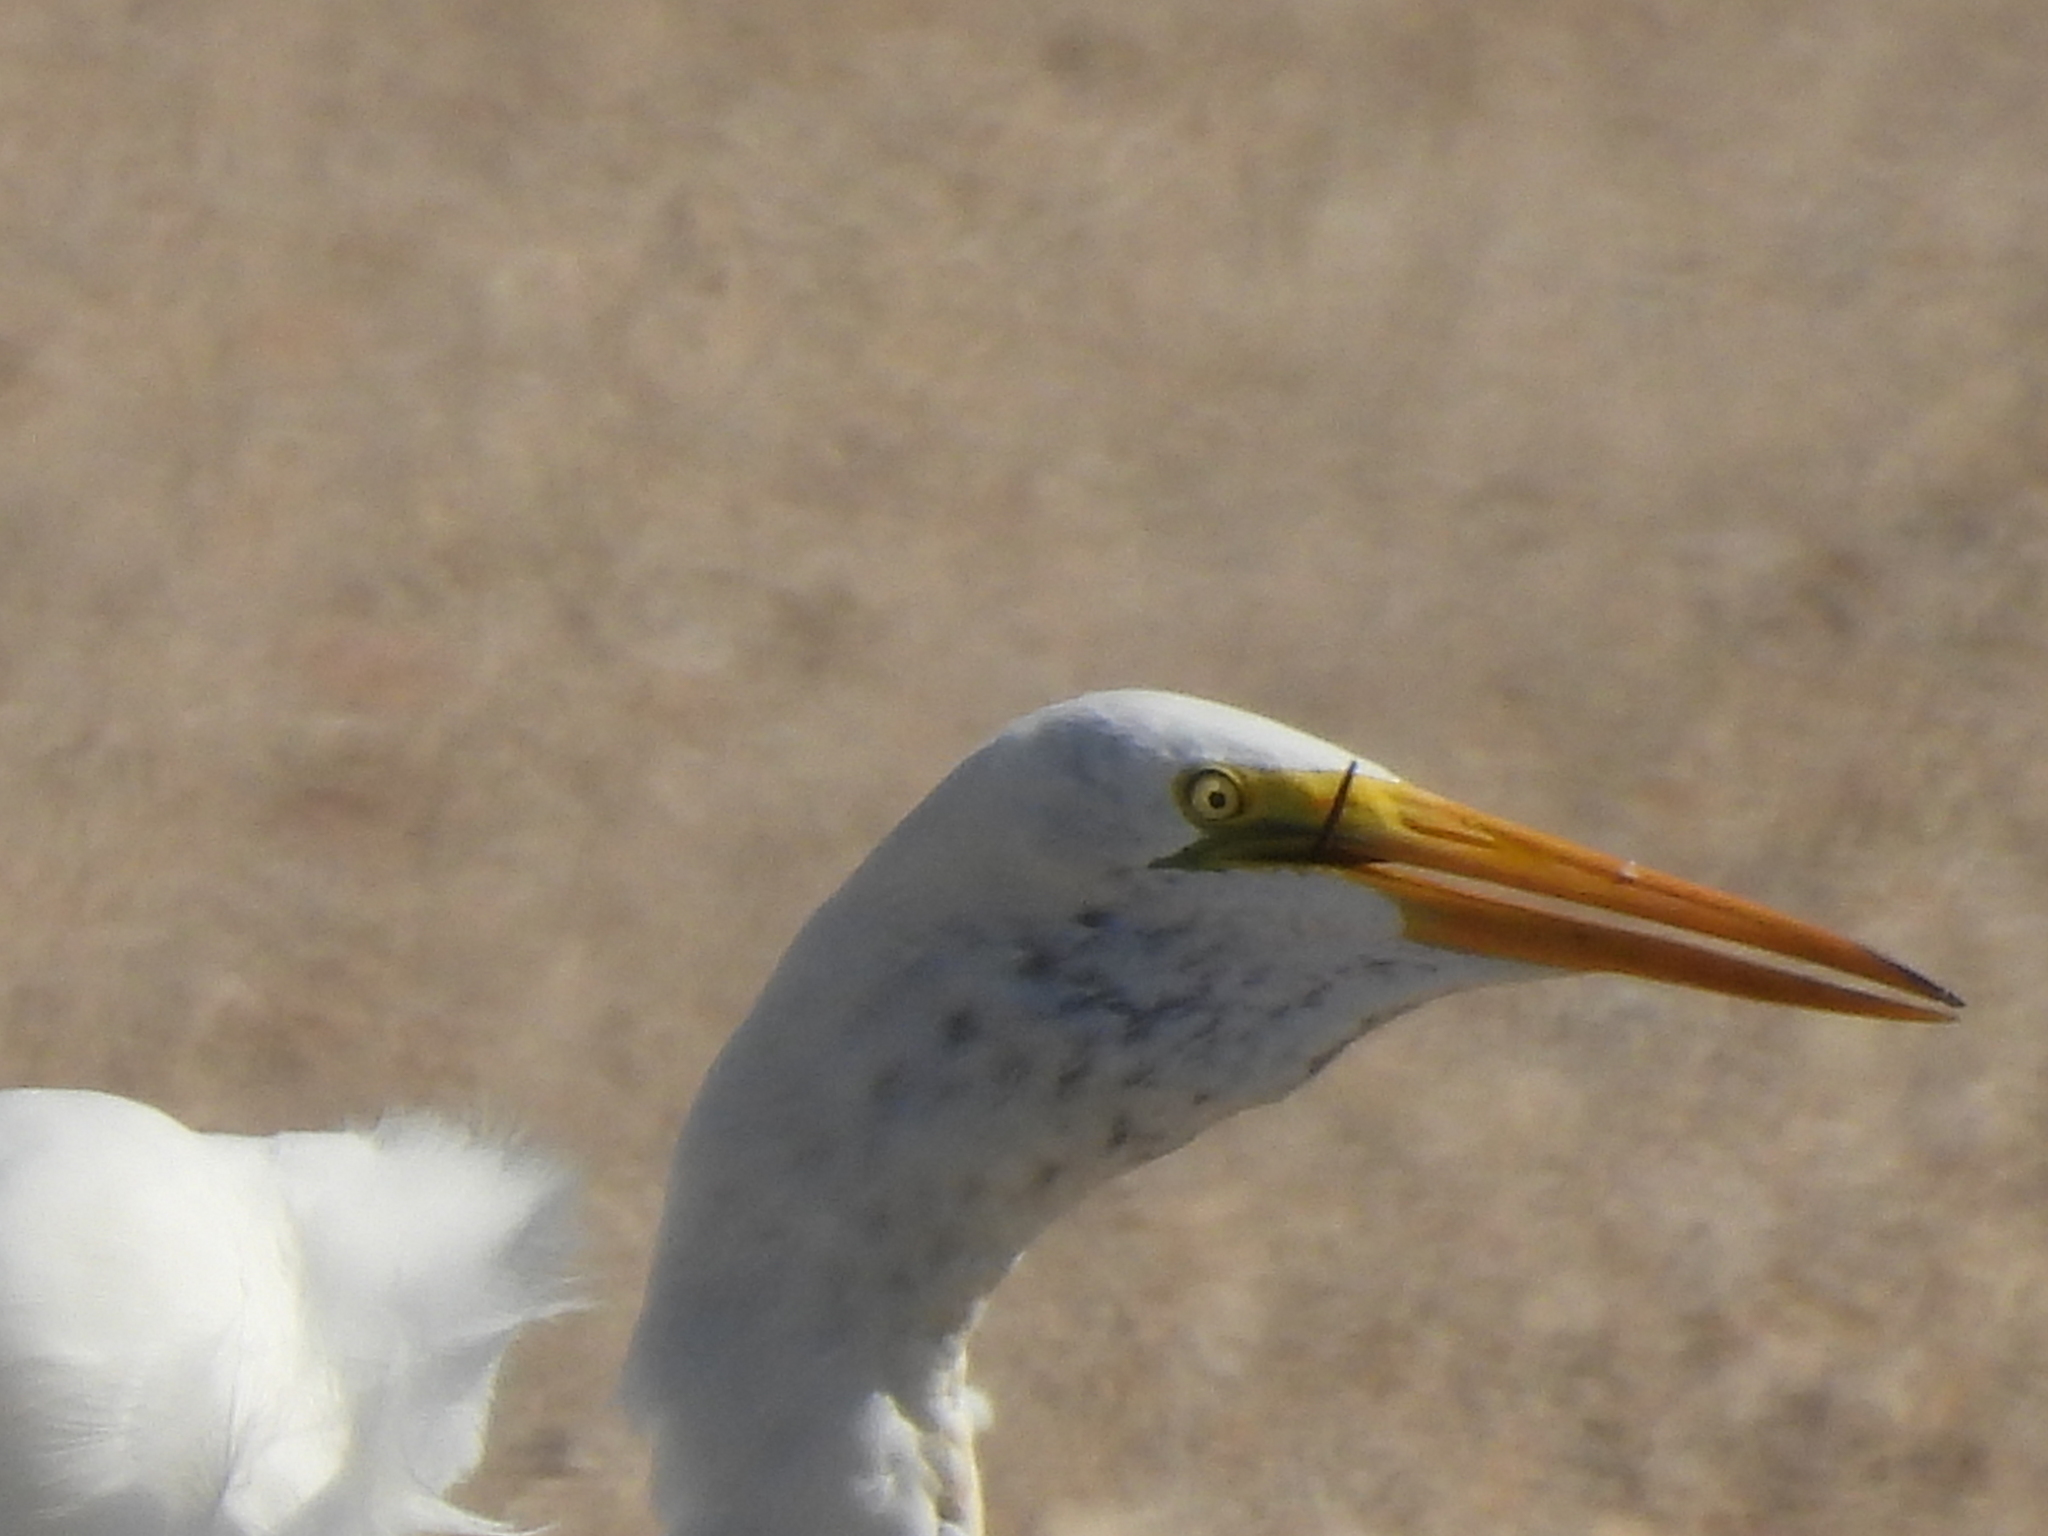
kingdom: Animalia
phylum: Chordata
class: Aves
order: Pelecaniformes
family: Ardeidae
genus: Ardea
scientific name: Ardea alba
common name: Great egret
